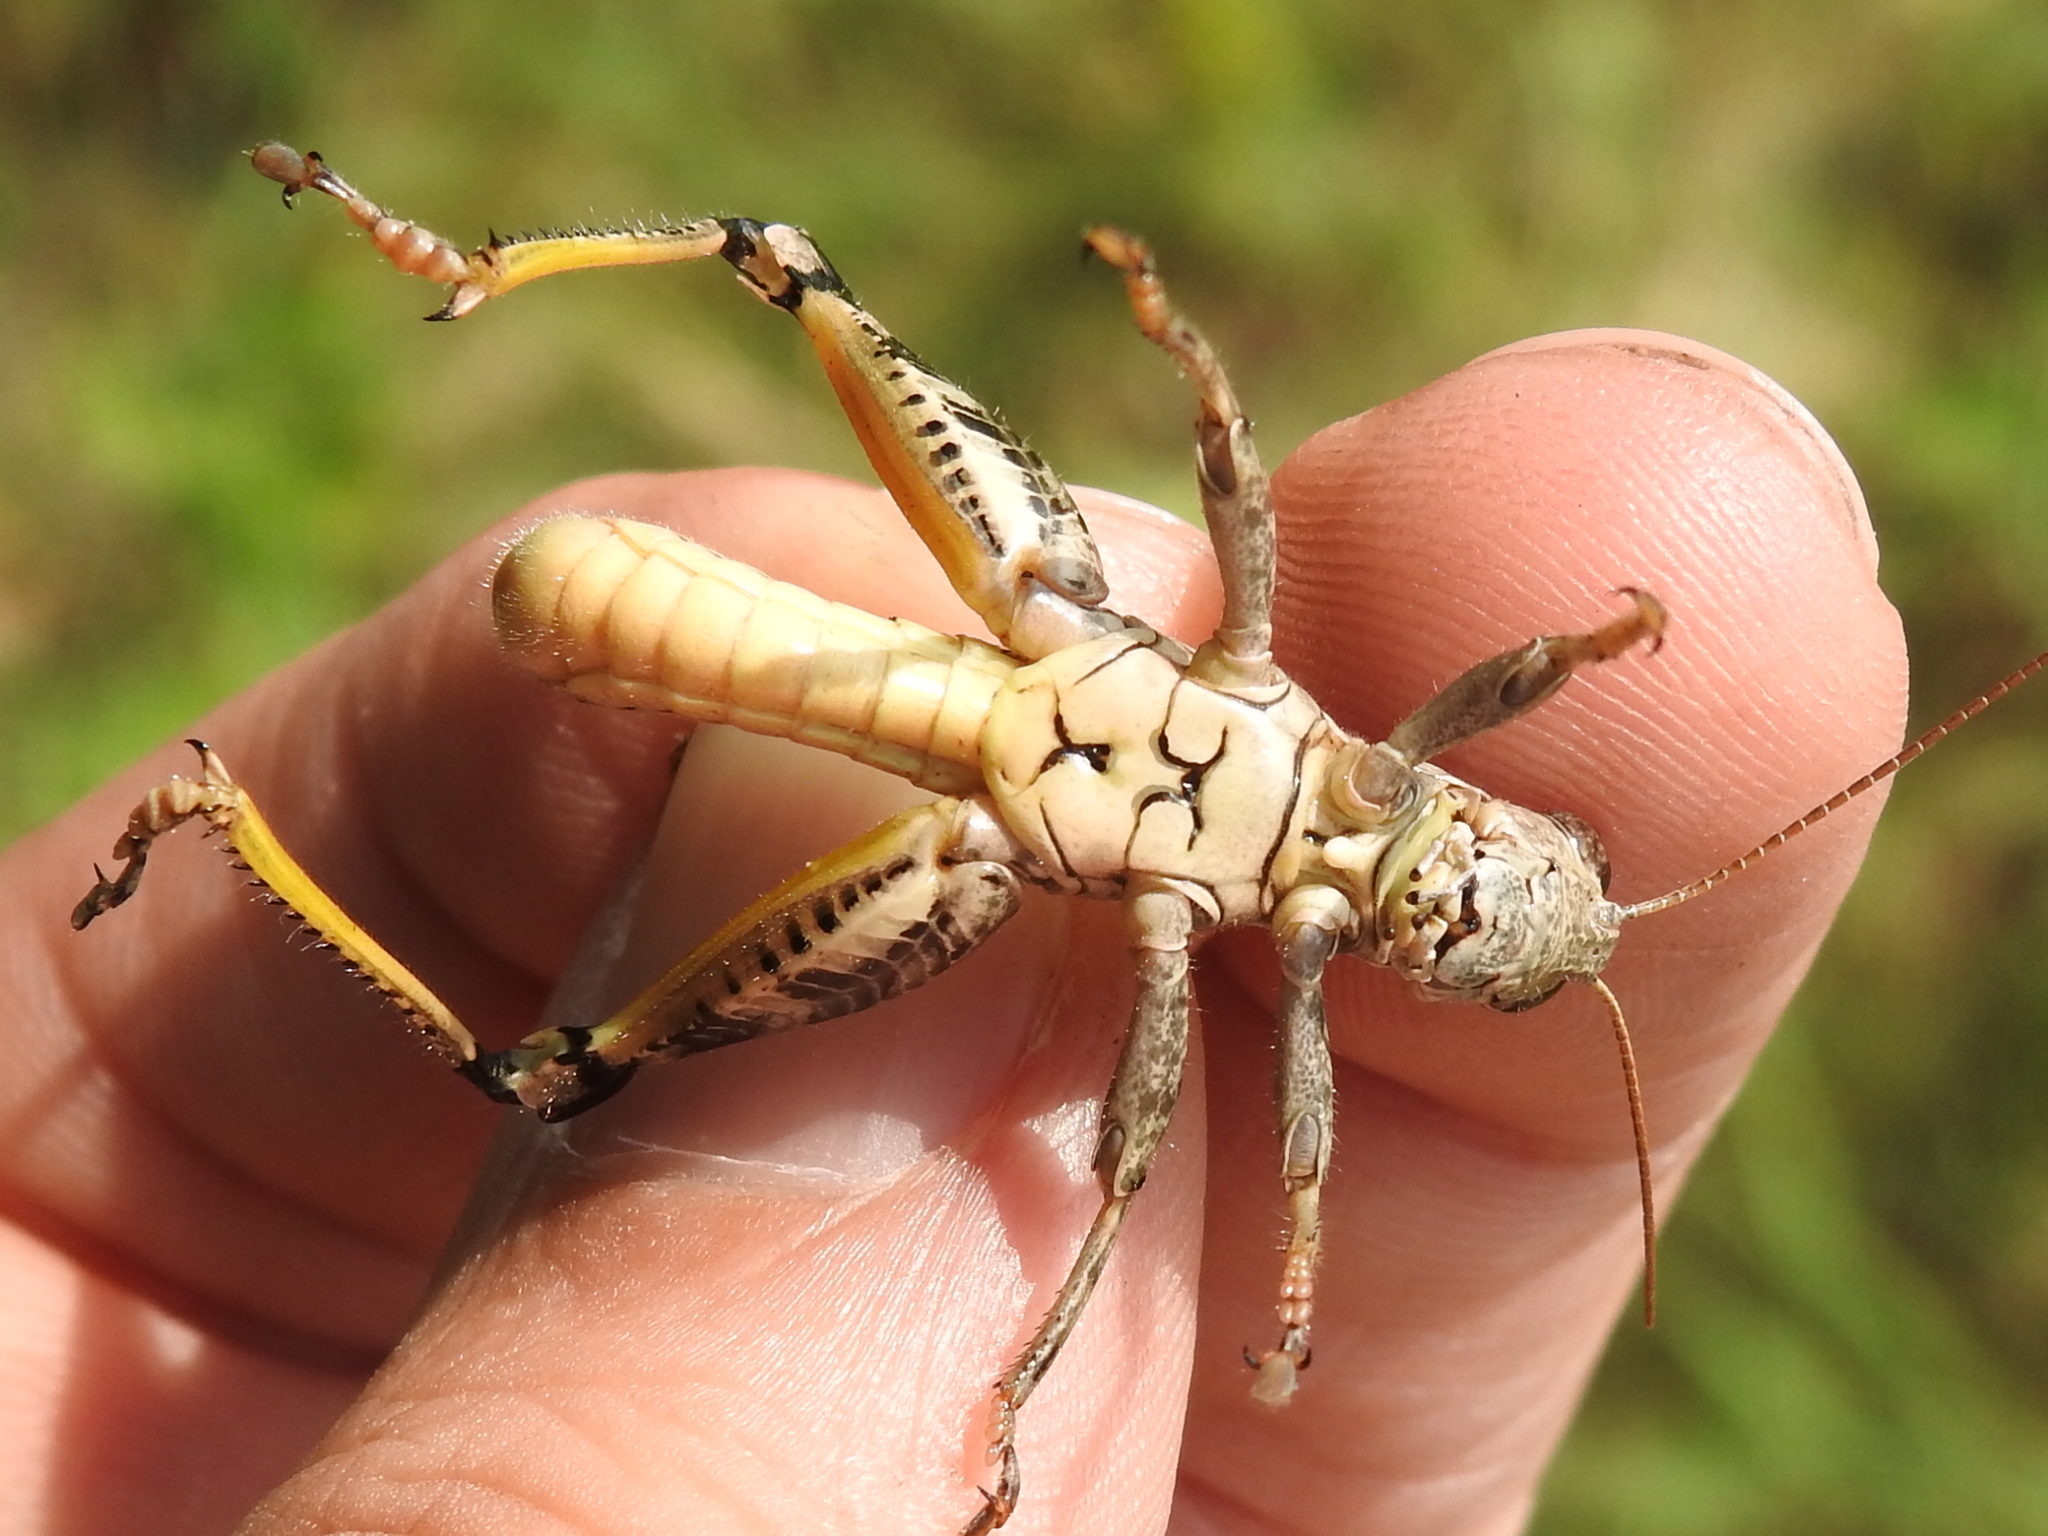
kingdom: Animalia
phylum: Arthropoda
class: Insecta
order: Orthoptera
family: Acrididae
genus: Melanoplus
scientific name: Melanoplus ponderosus
